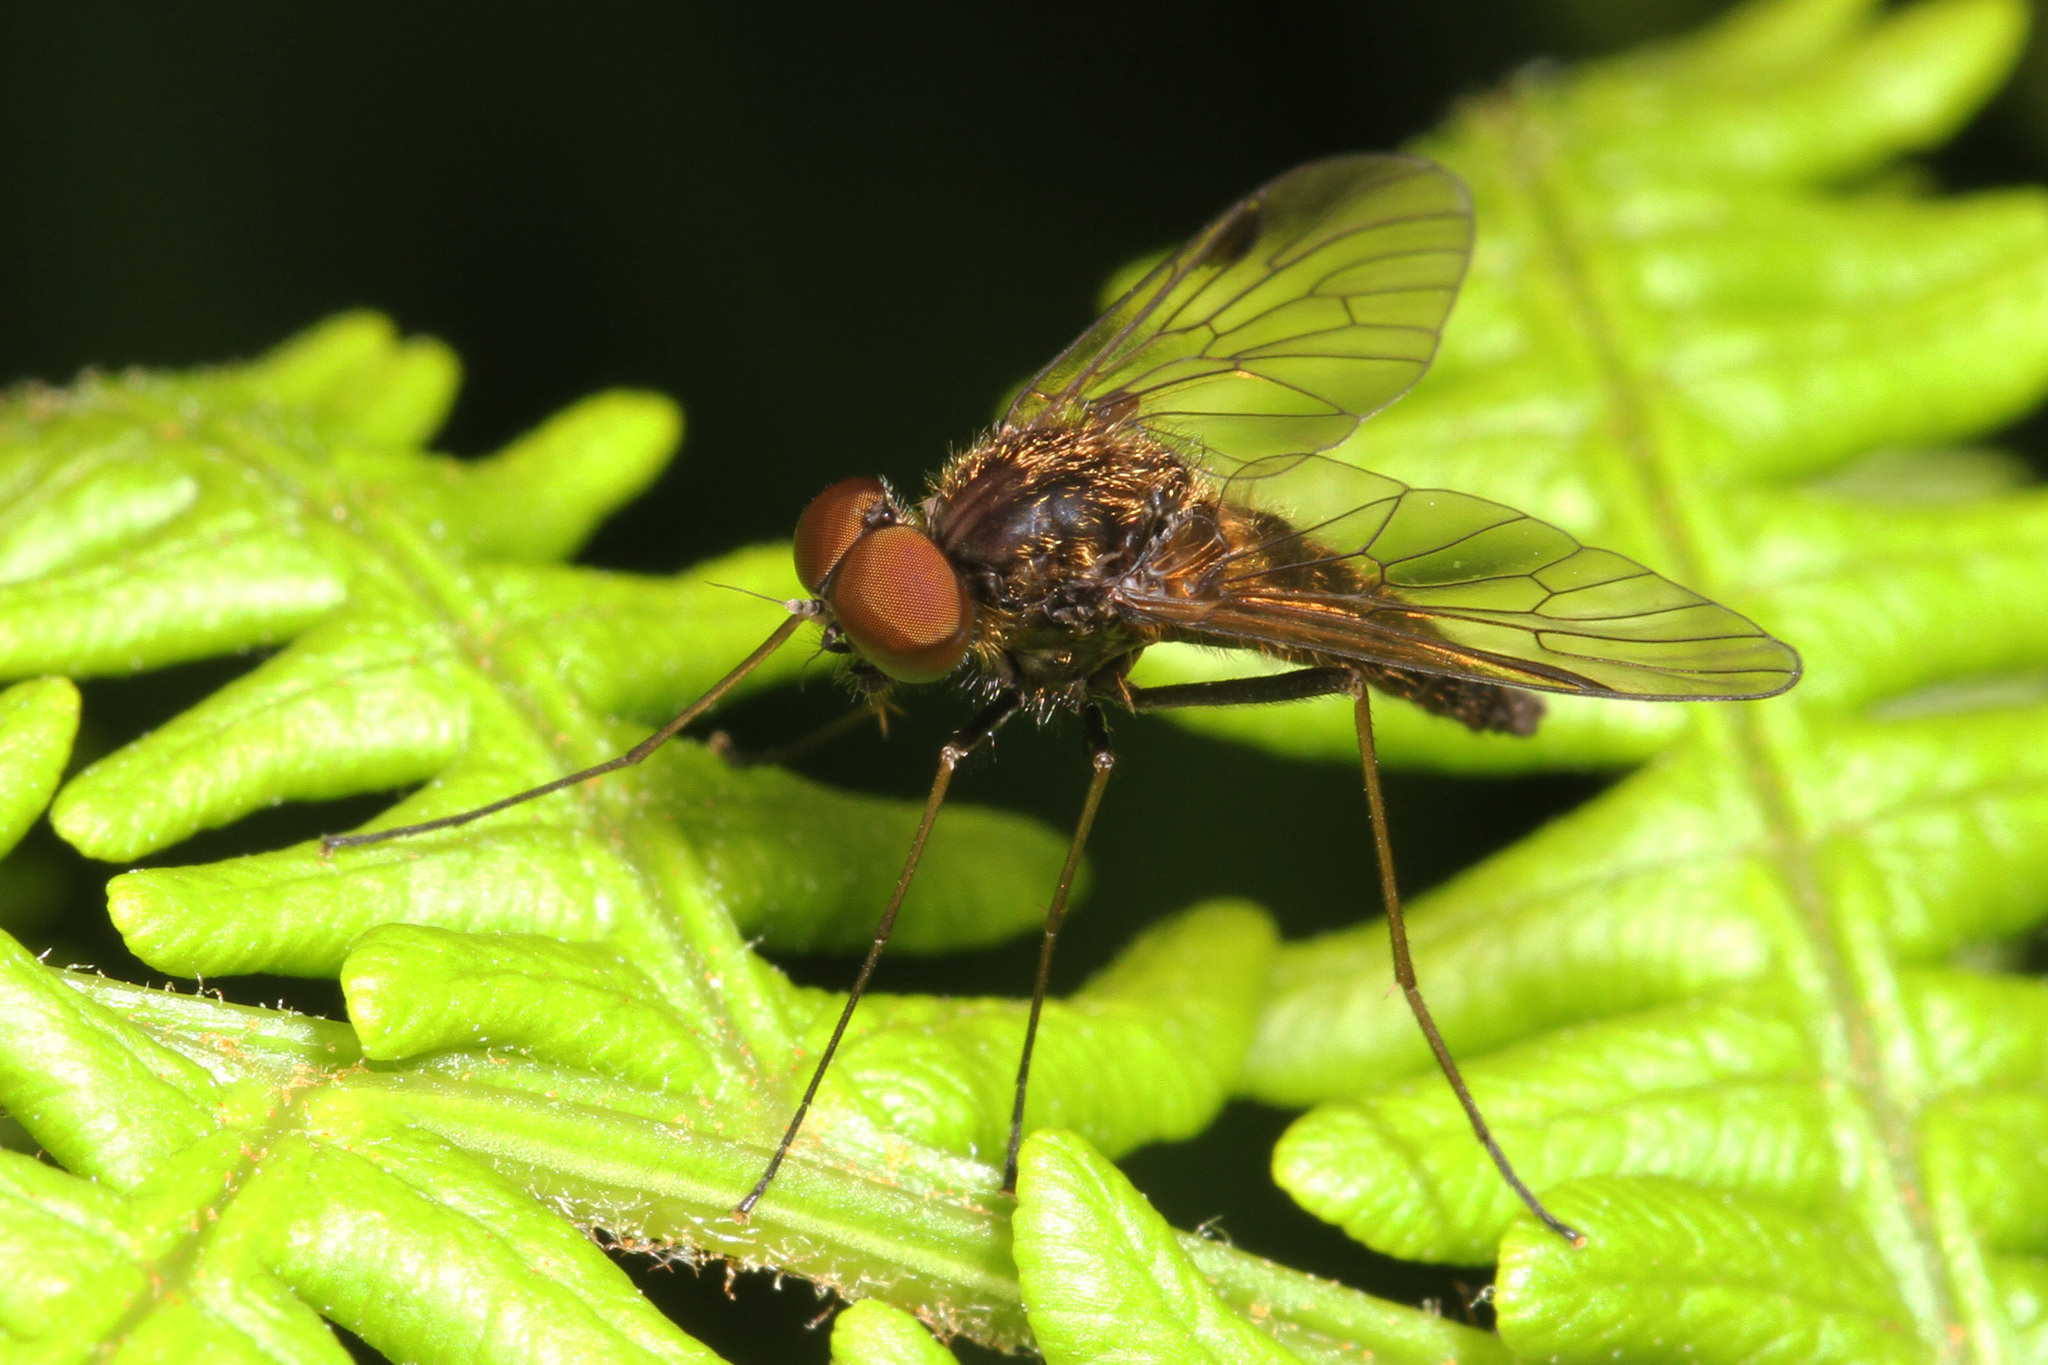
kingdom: Animalia
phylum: Arthropoda
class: Insecta
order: Diptera
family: Rhagionidae
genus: Chrysopilus
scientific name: Chrysopilus cristatus
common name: Black snipefly
